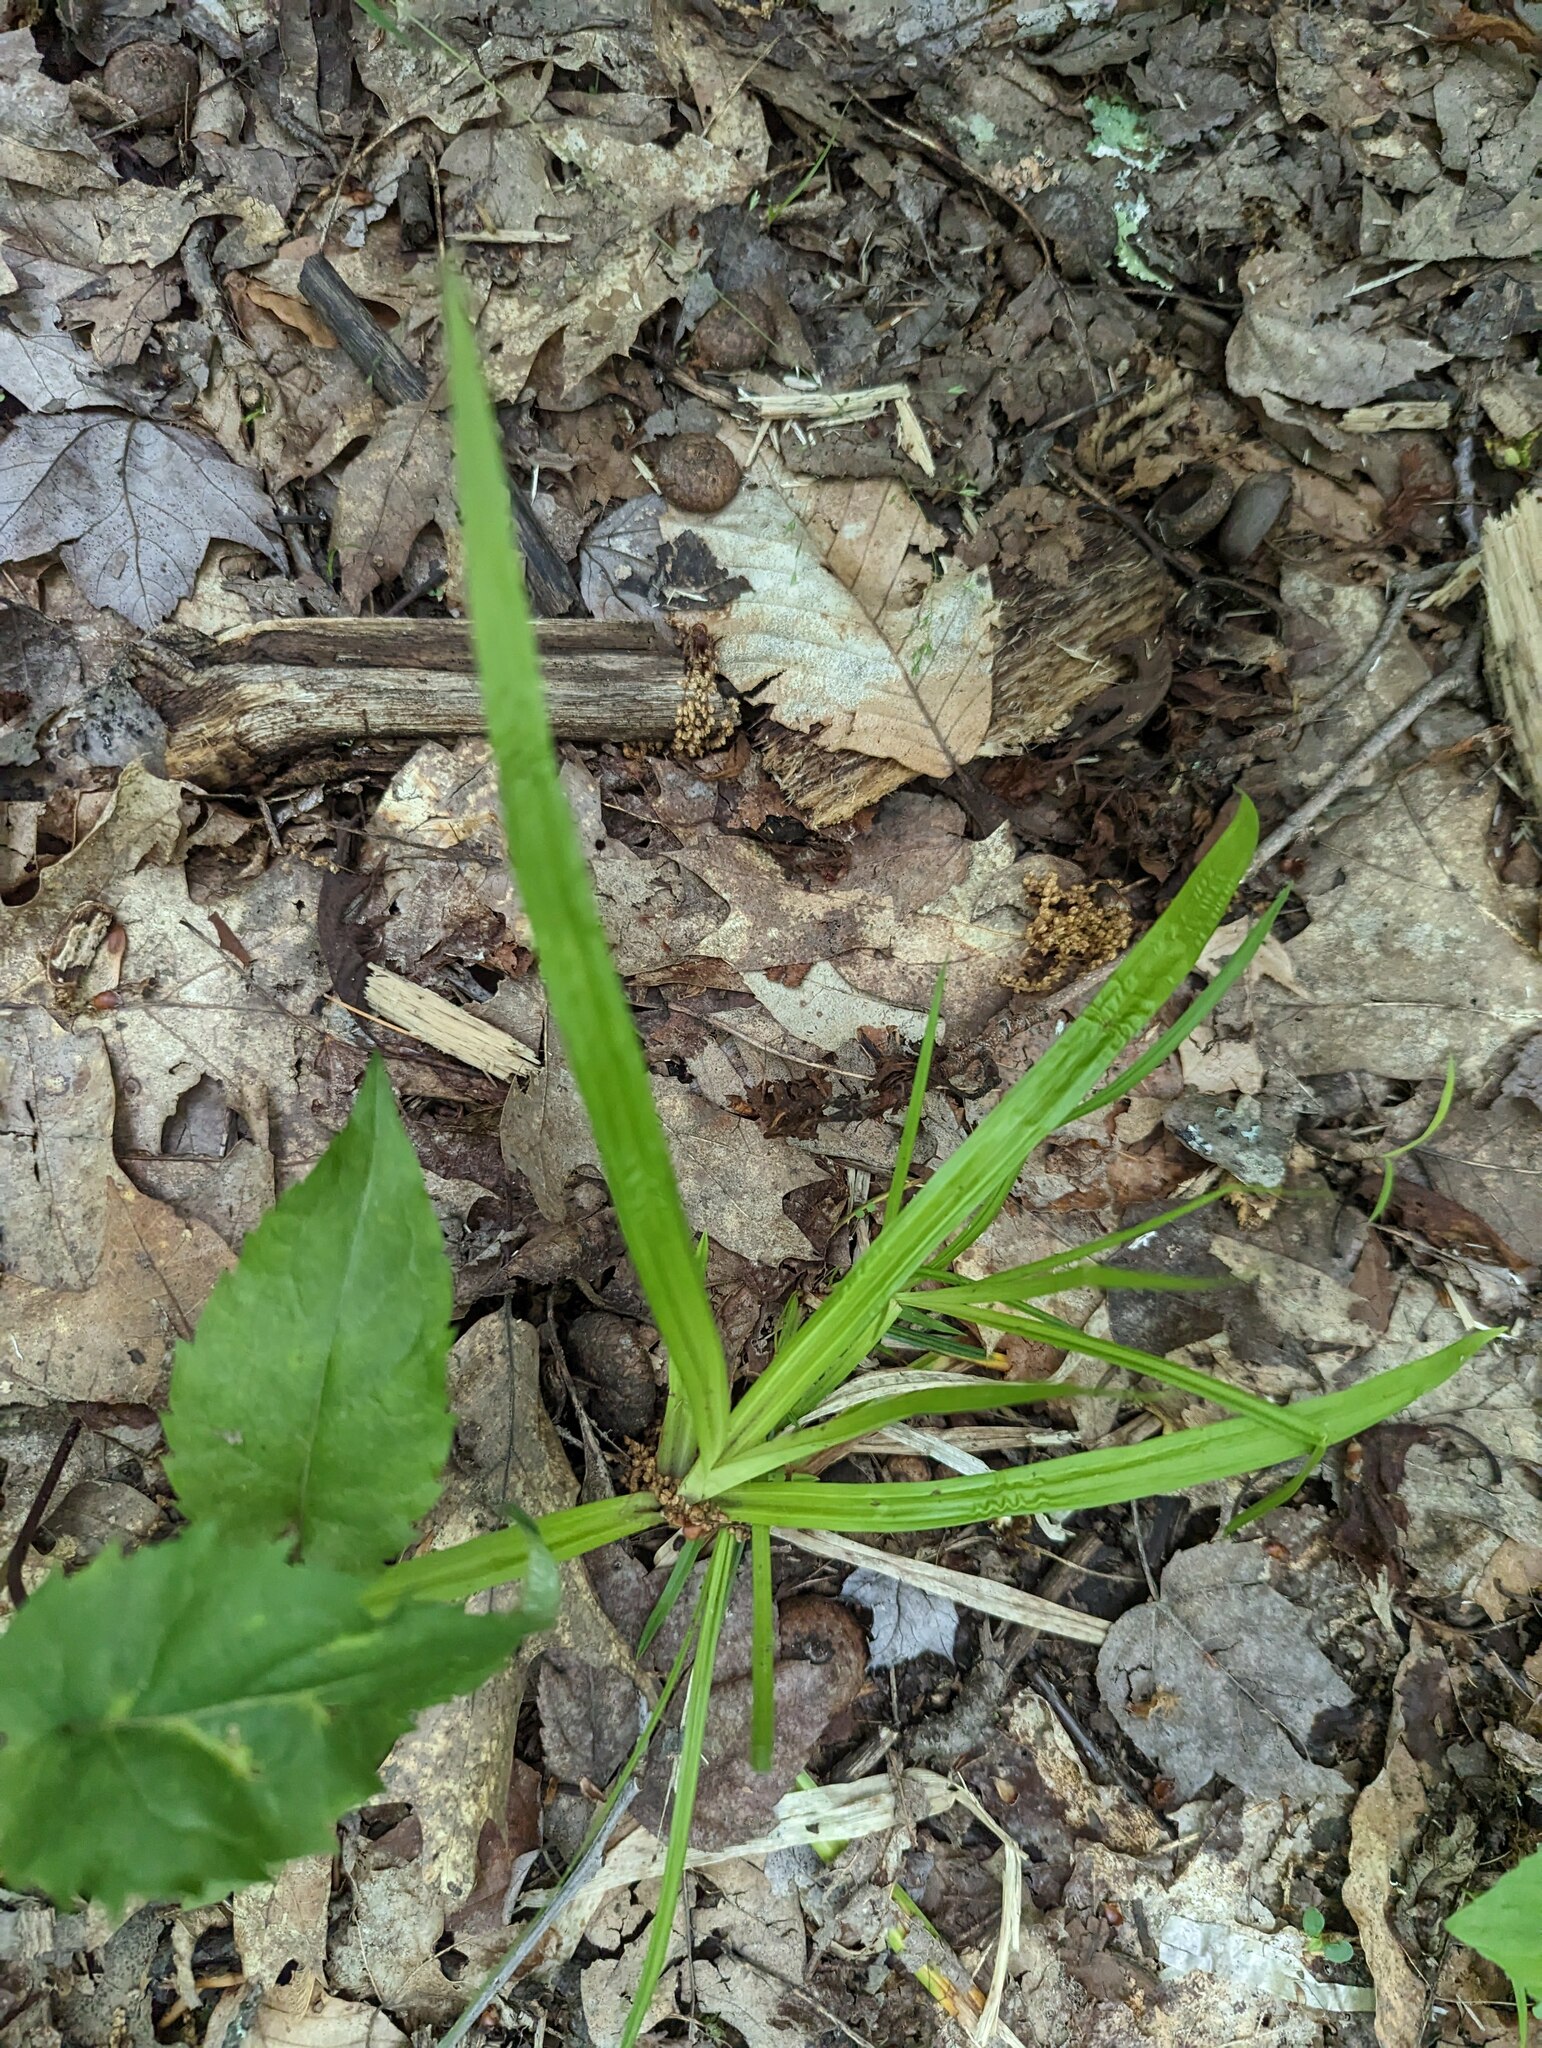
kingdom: Plantae
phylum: Tracheophyta
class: Liliopsida
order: Poales
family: Cyperaceae
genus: Carex
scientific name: Carex
